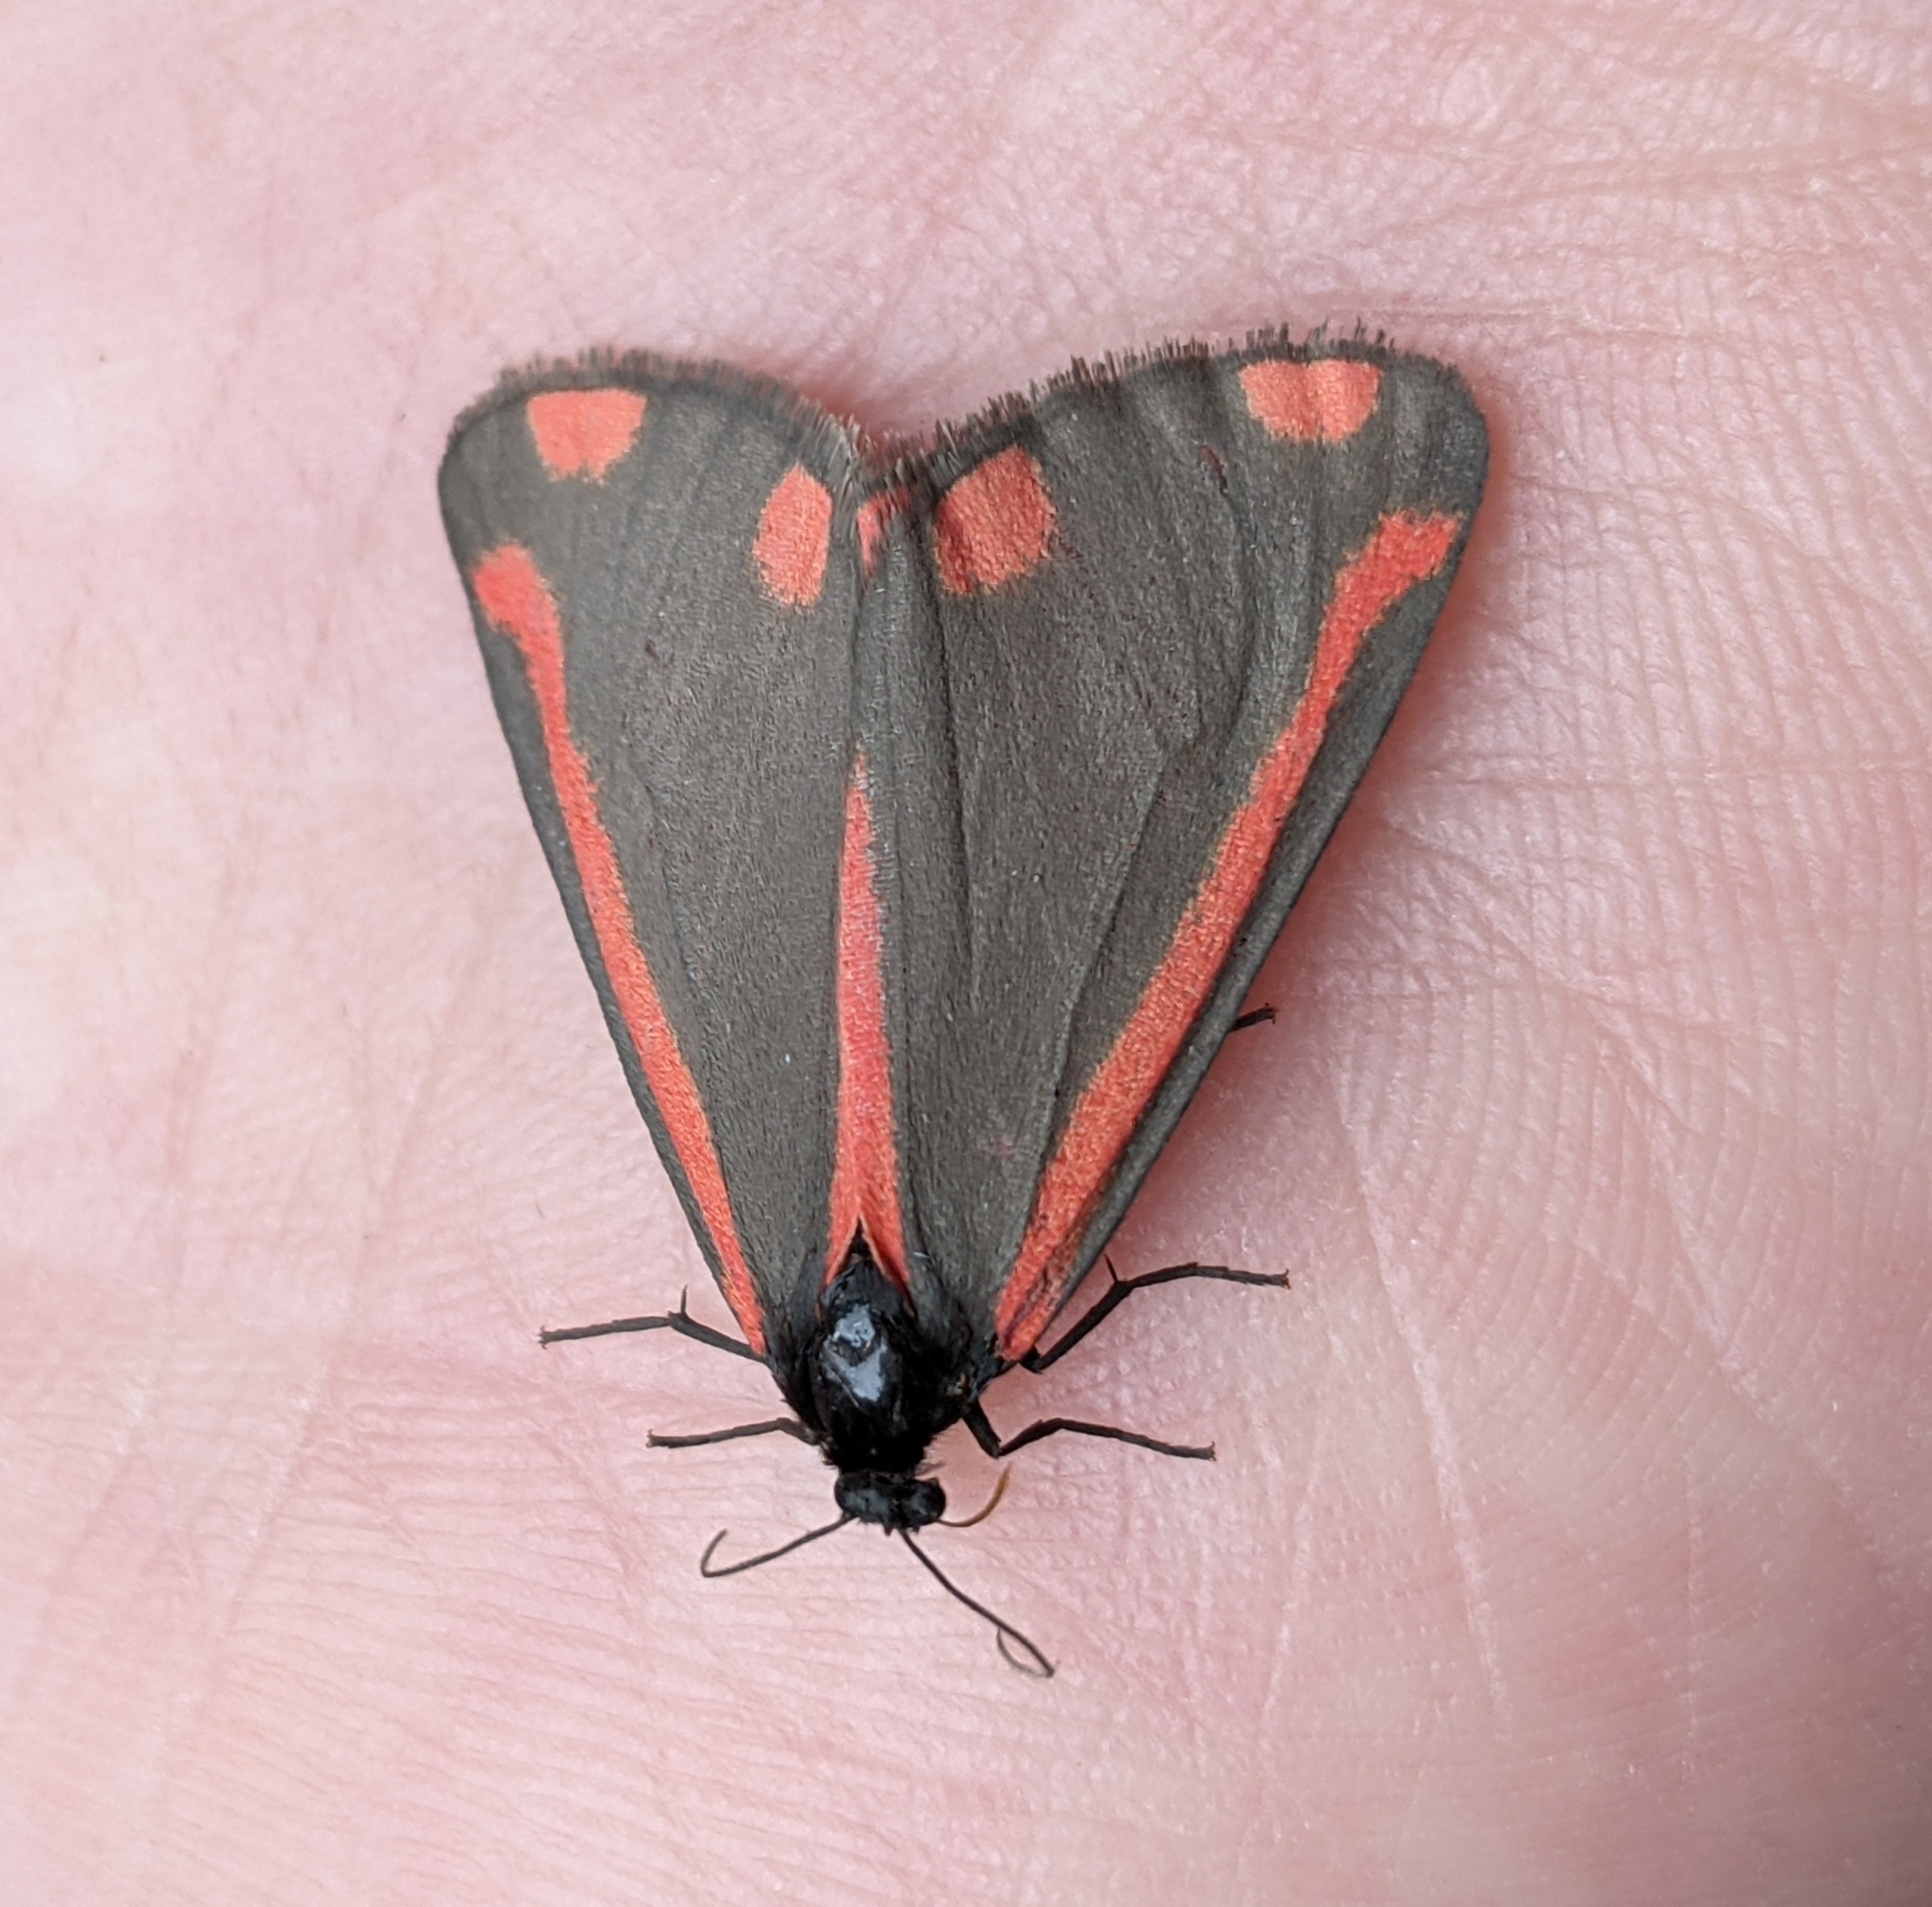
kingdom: Animalia
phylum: Arthropoda
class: Insecta
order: Lepidoptera
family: Erebidae
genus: Tyria
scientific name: Tyria jacobaeae
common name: Cinnabar
